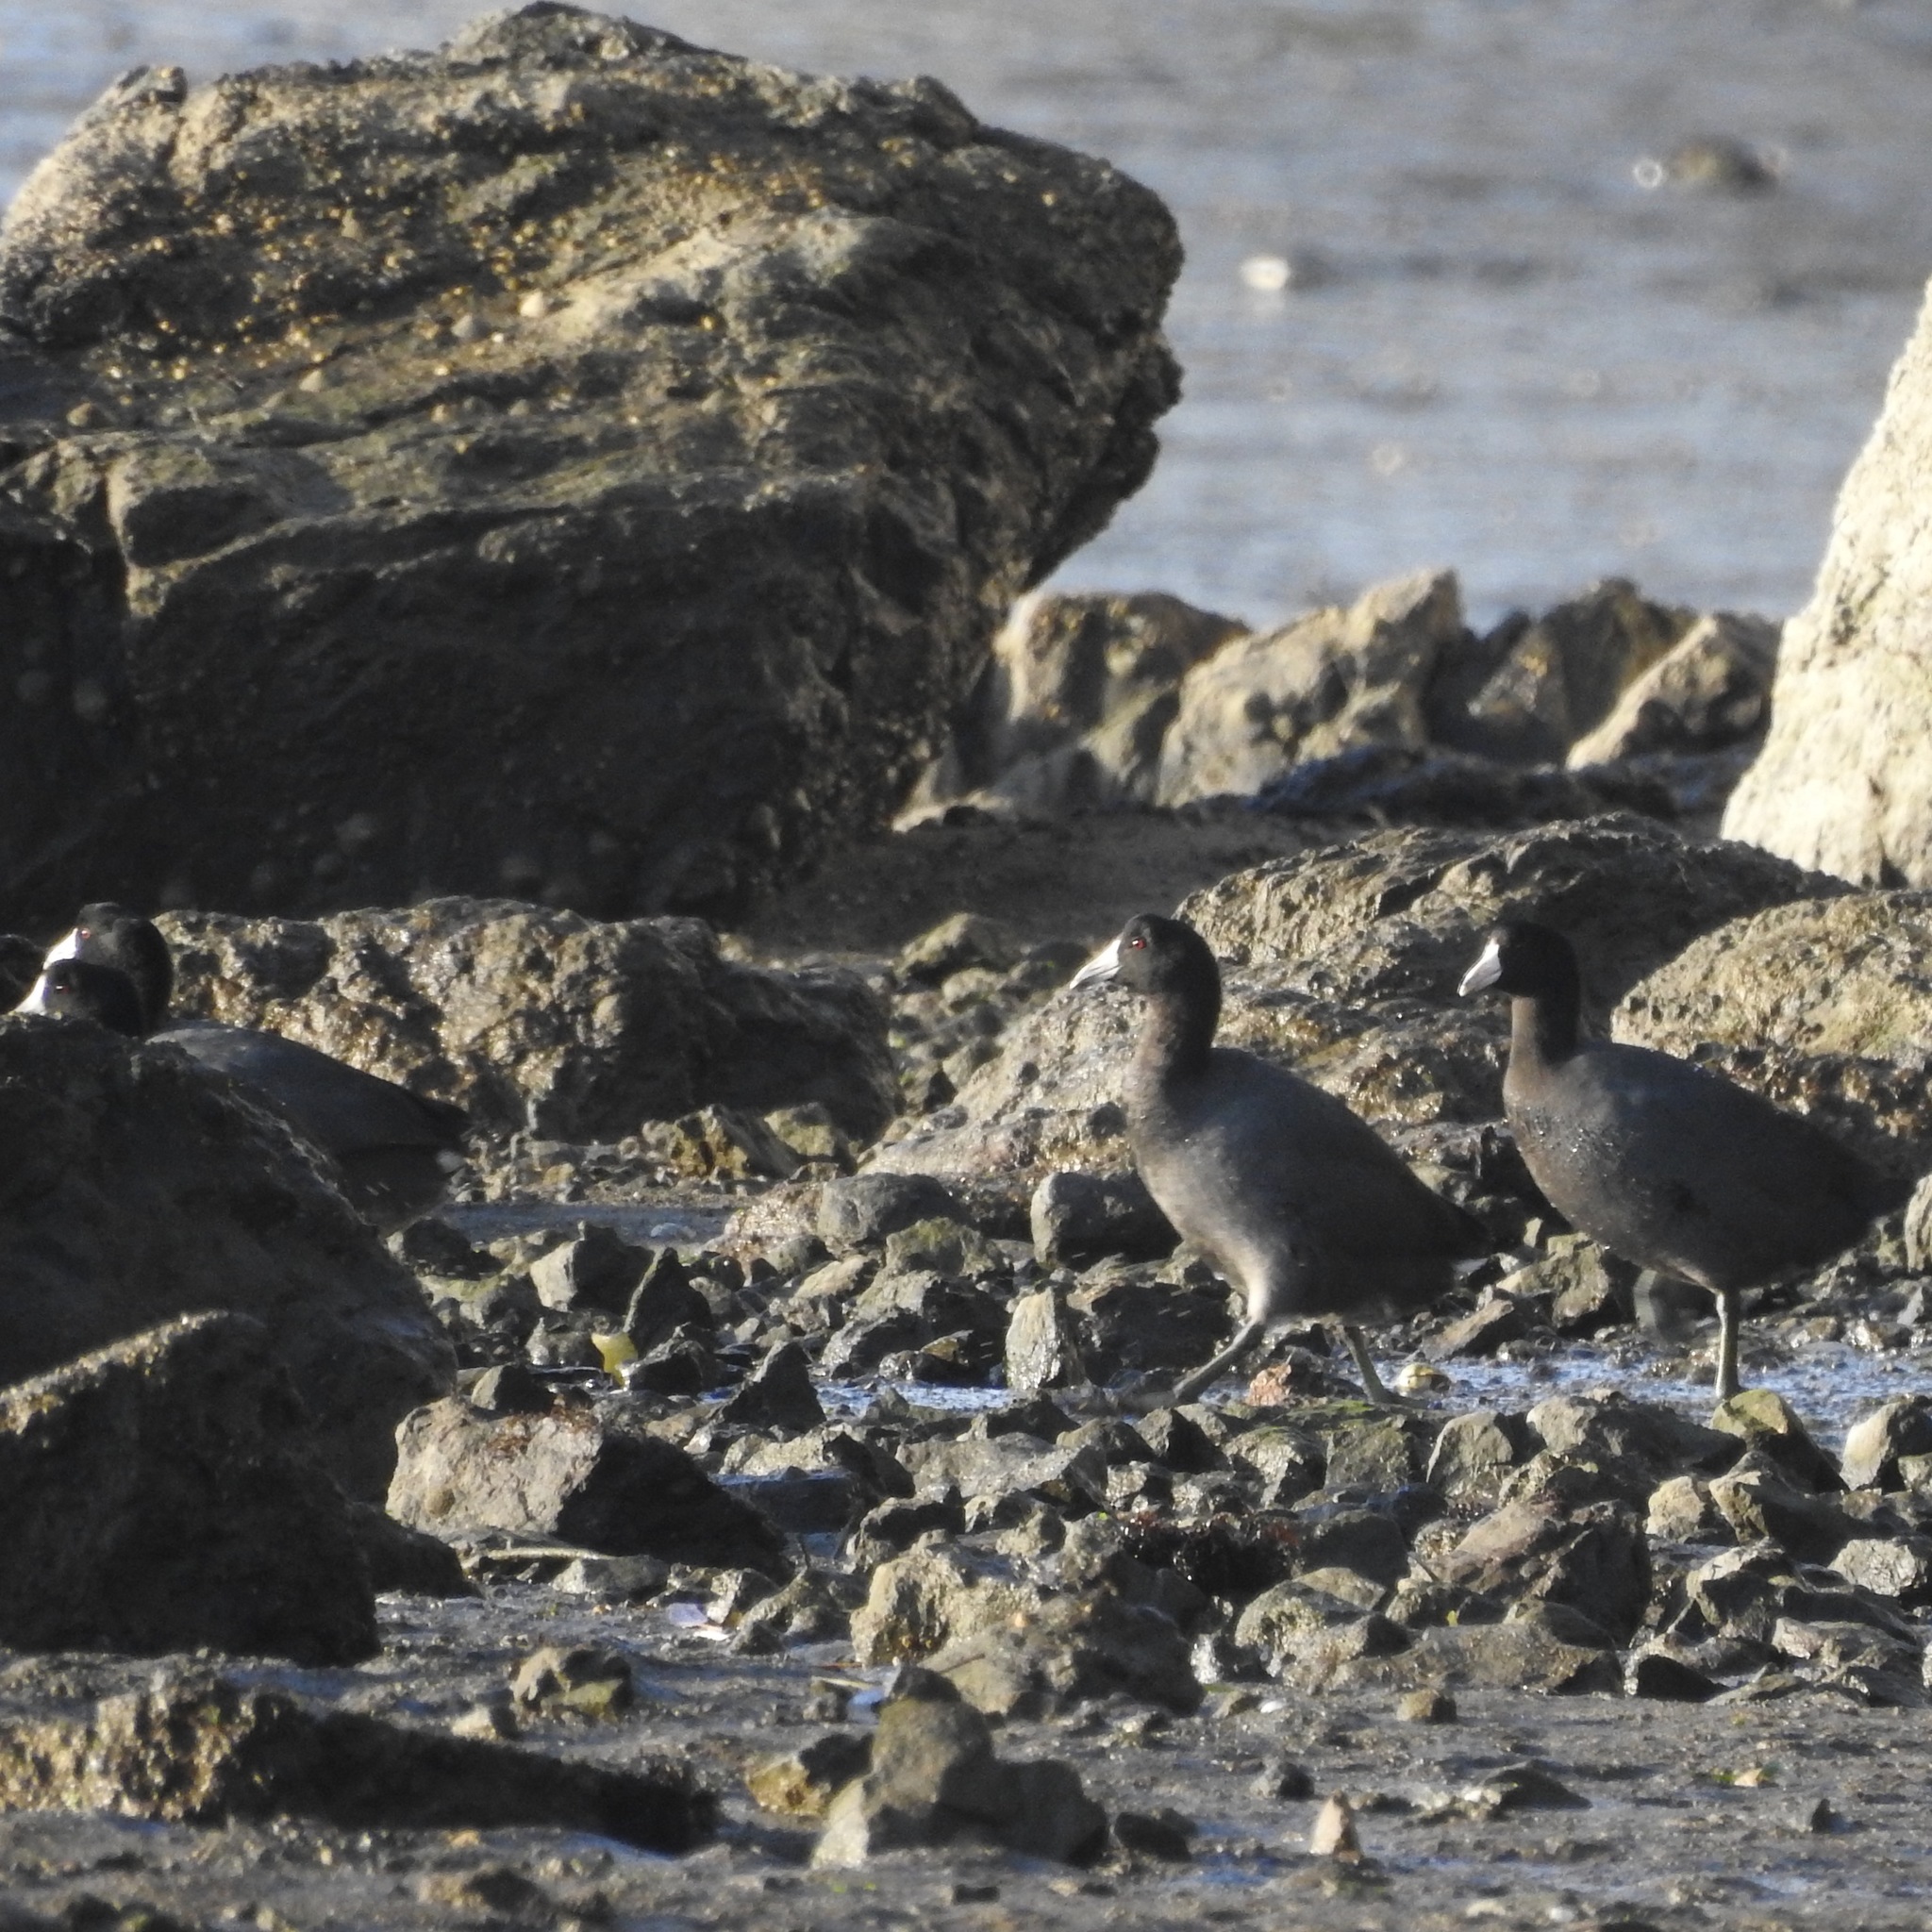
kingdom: Animalia
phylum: Chordata
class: Aves
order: Gruiformes
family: Rallidae
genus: Fulica
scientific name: Fulica americana
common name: American coot
